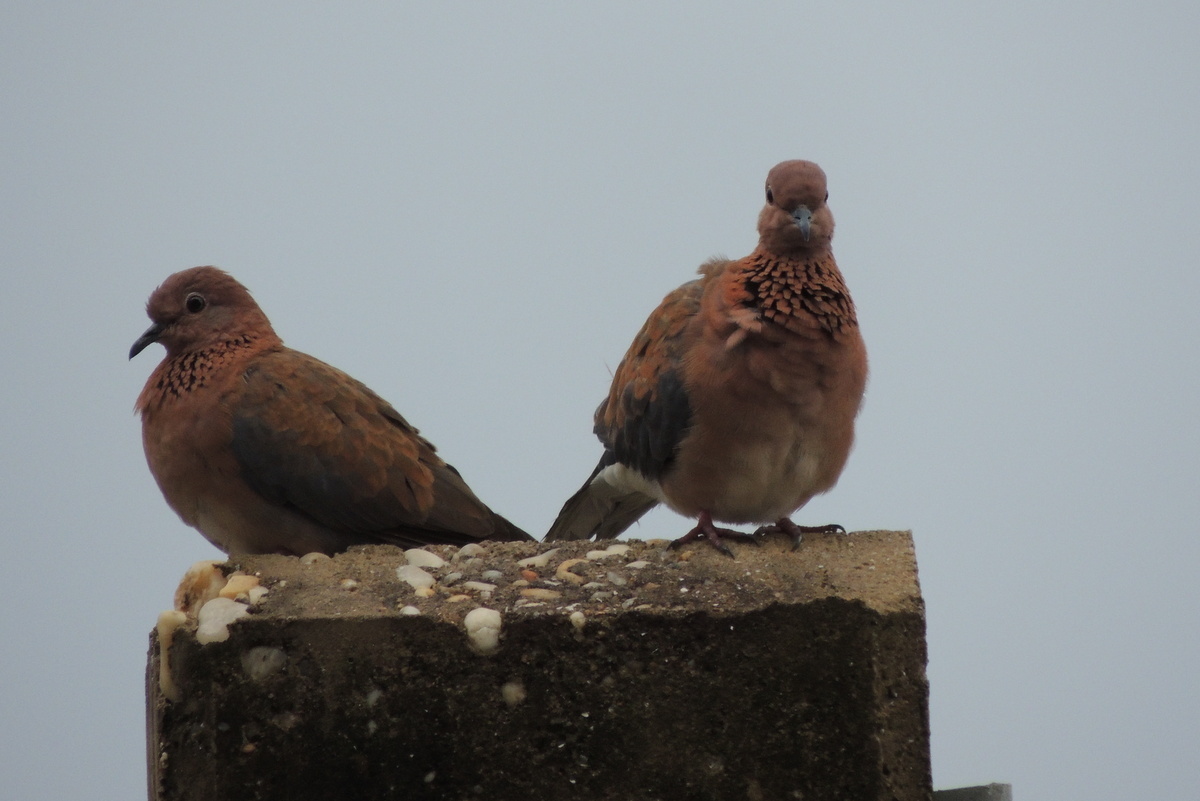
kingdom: Animalia
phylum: Chordata
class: Aves
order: Columbiformes
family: Columbidae
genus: Spilopelia
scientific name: Spilopelia senegalensis
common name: Laughing dove
